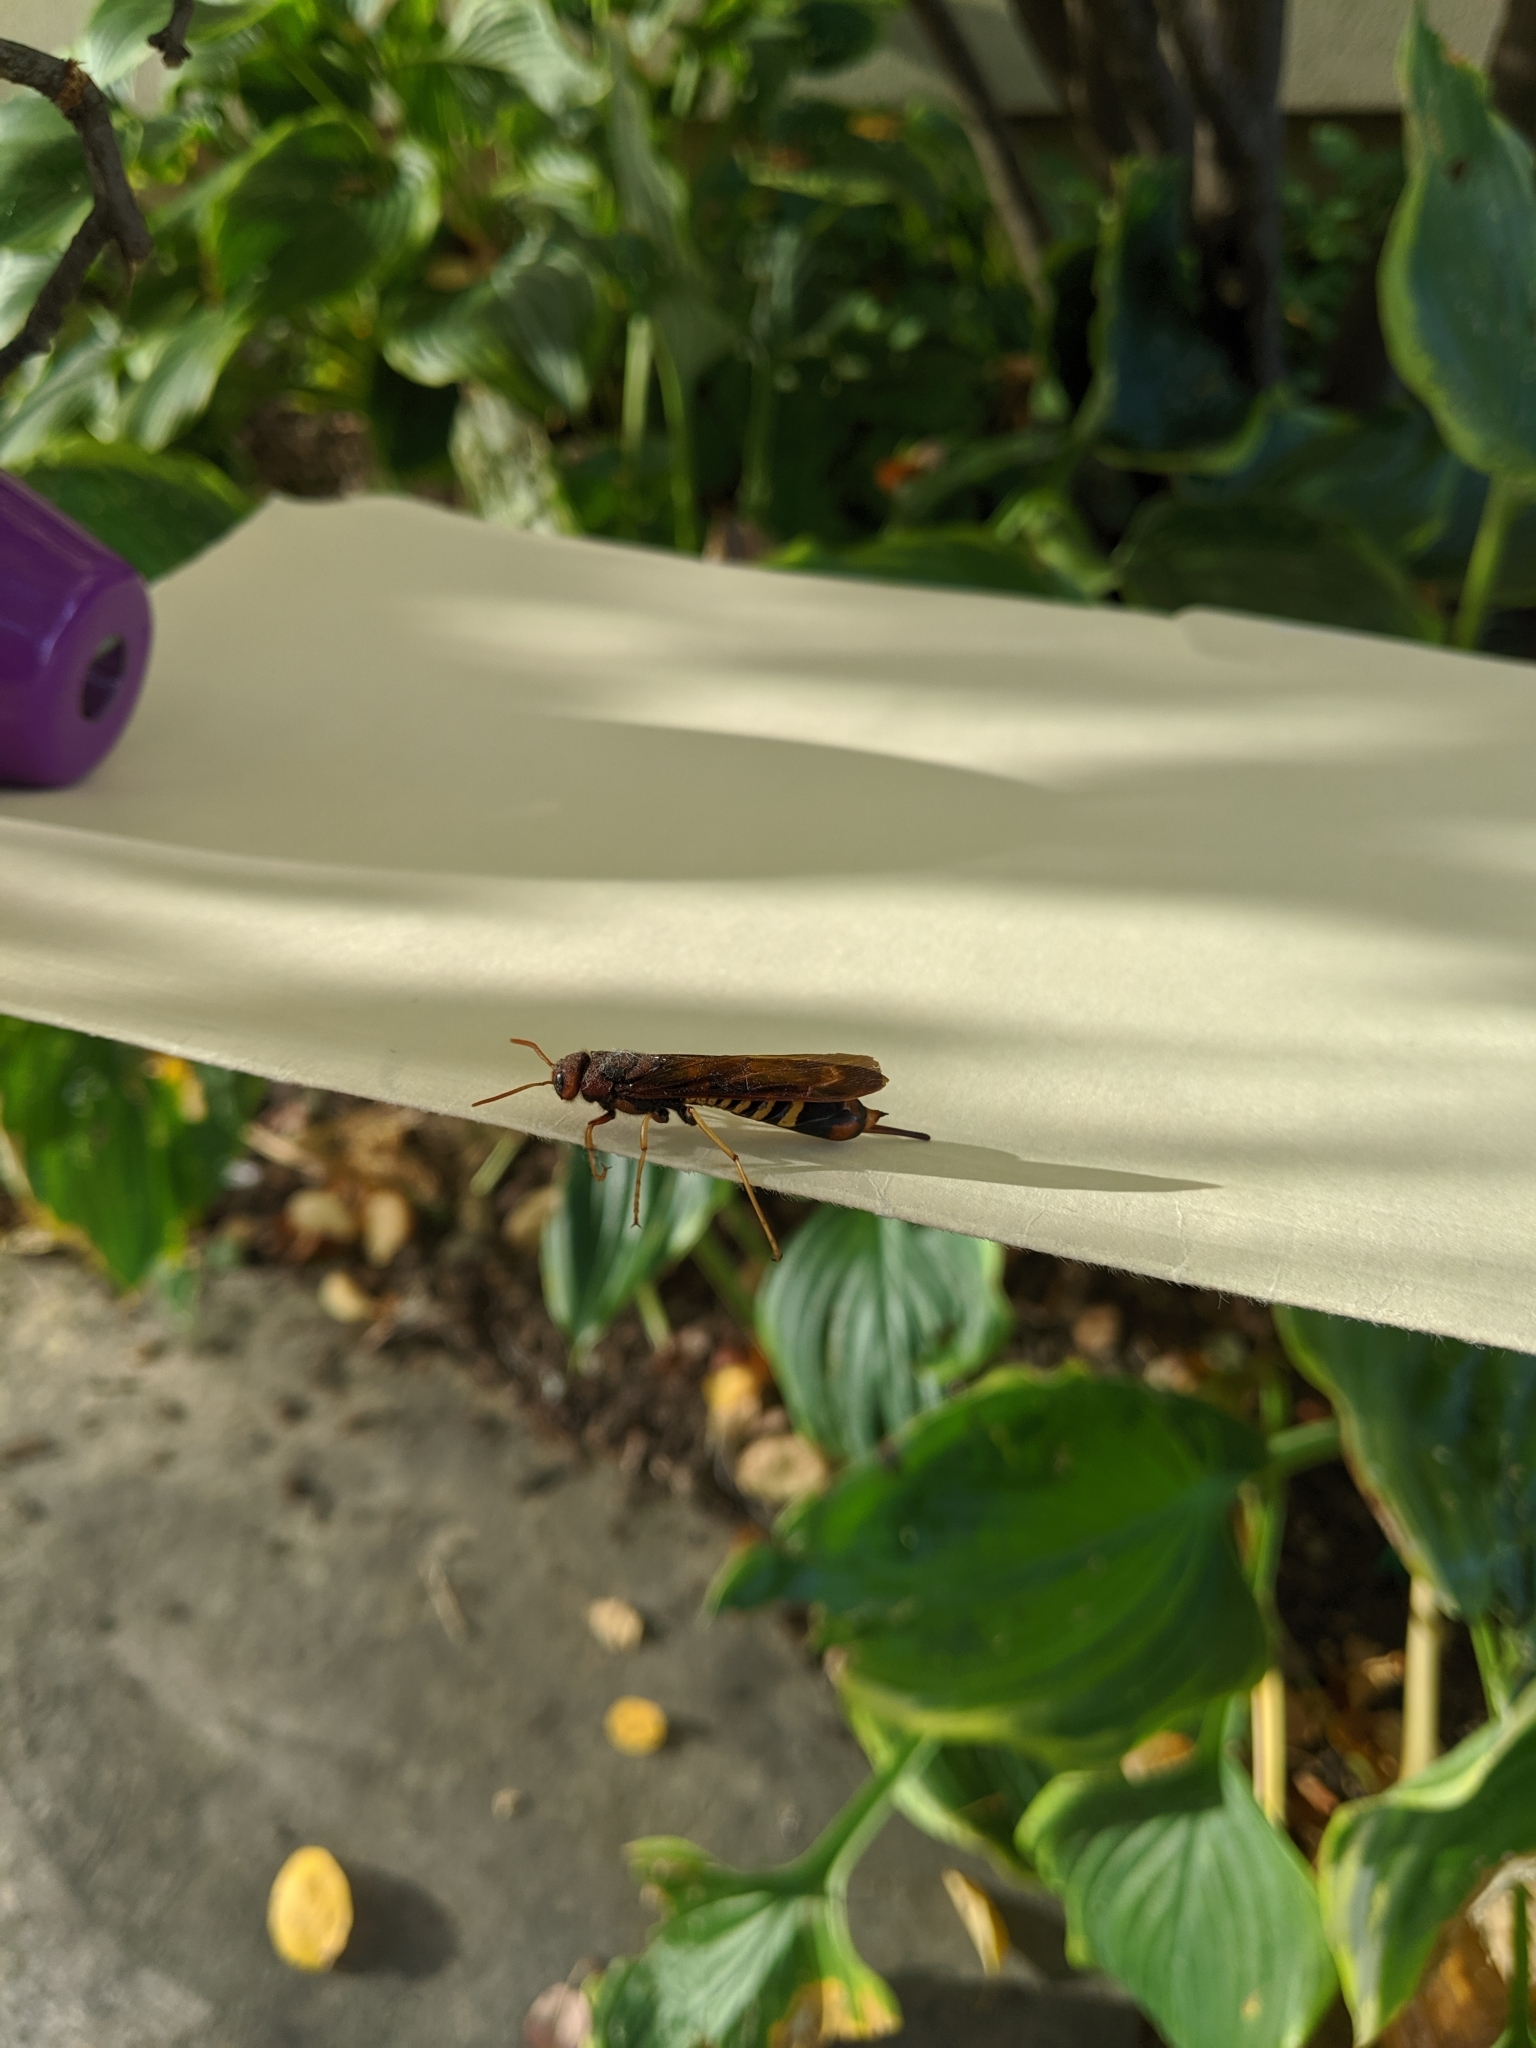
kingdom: Animalia
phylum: Arthropoda
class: Insecta
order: Hymenoptera
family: Siricidae
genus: Tremex
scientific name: Tremex columba
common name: Wasp
